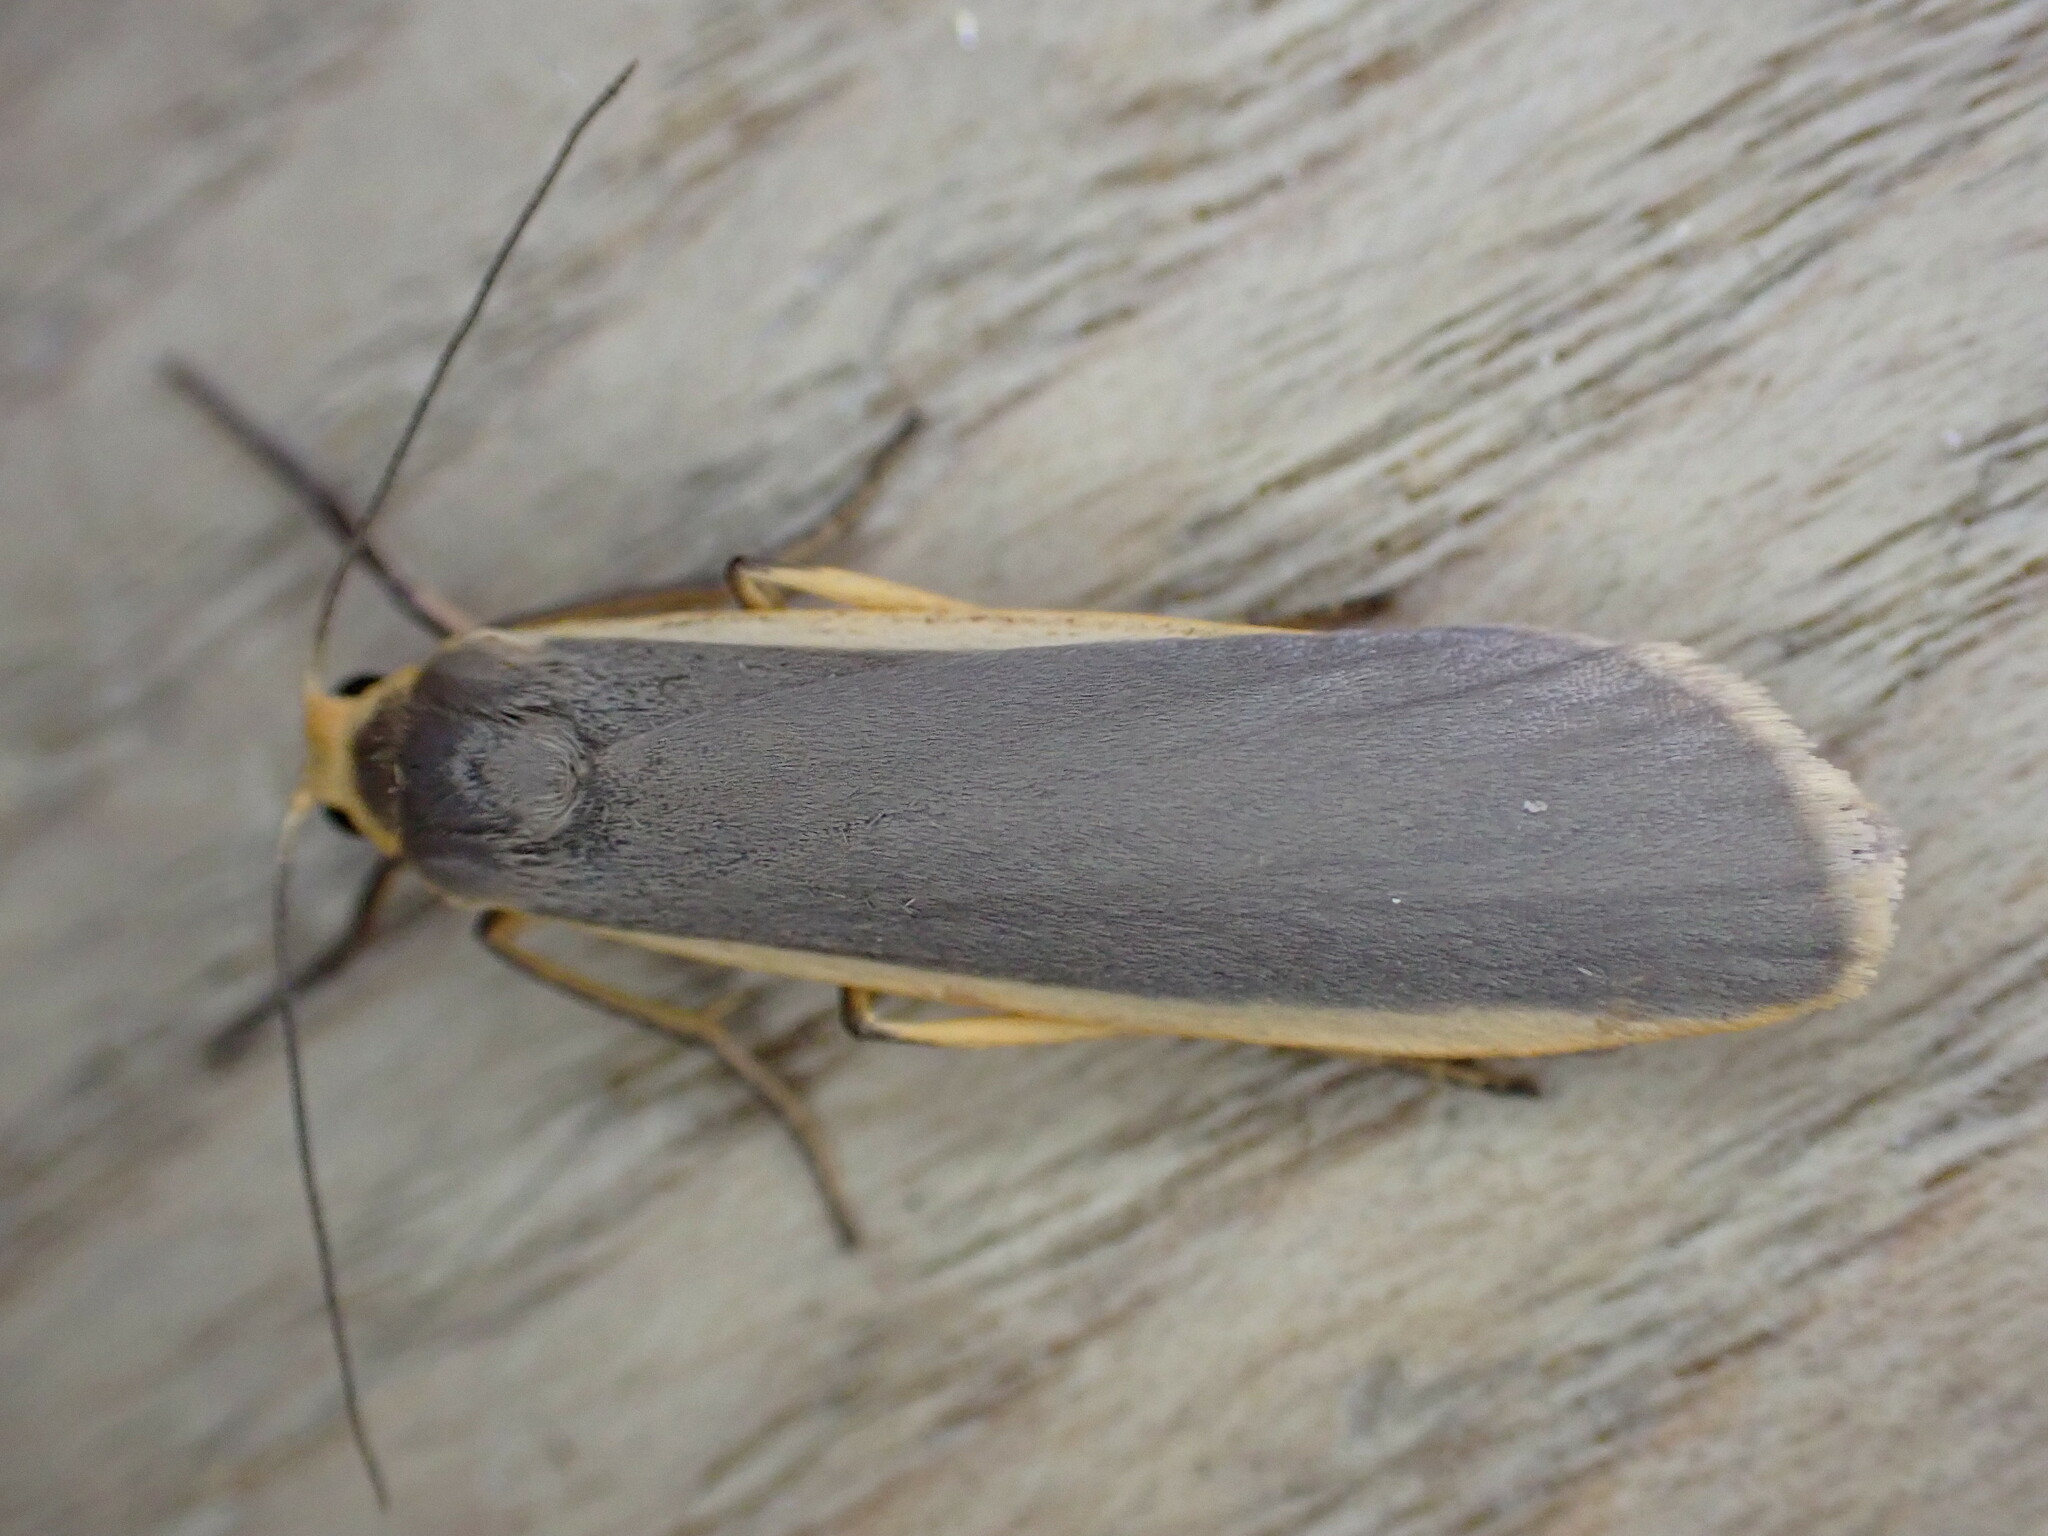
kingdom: Animalia
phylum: Arthropoda
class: Insecta
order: Lepidoptera
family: Erebidae
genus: Nyea
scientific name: Nyea lurideola
